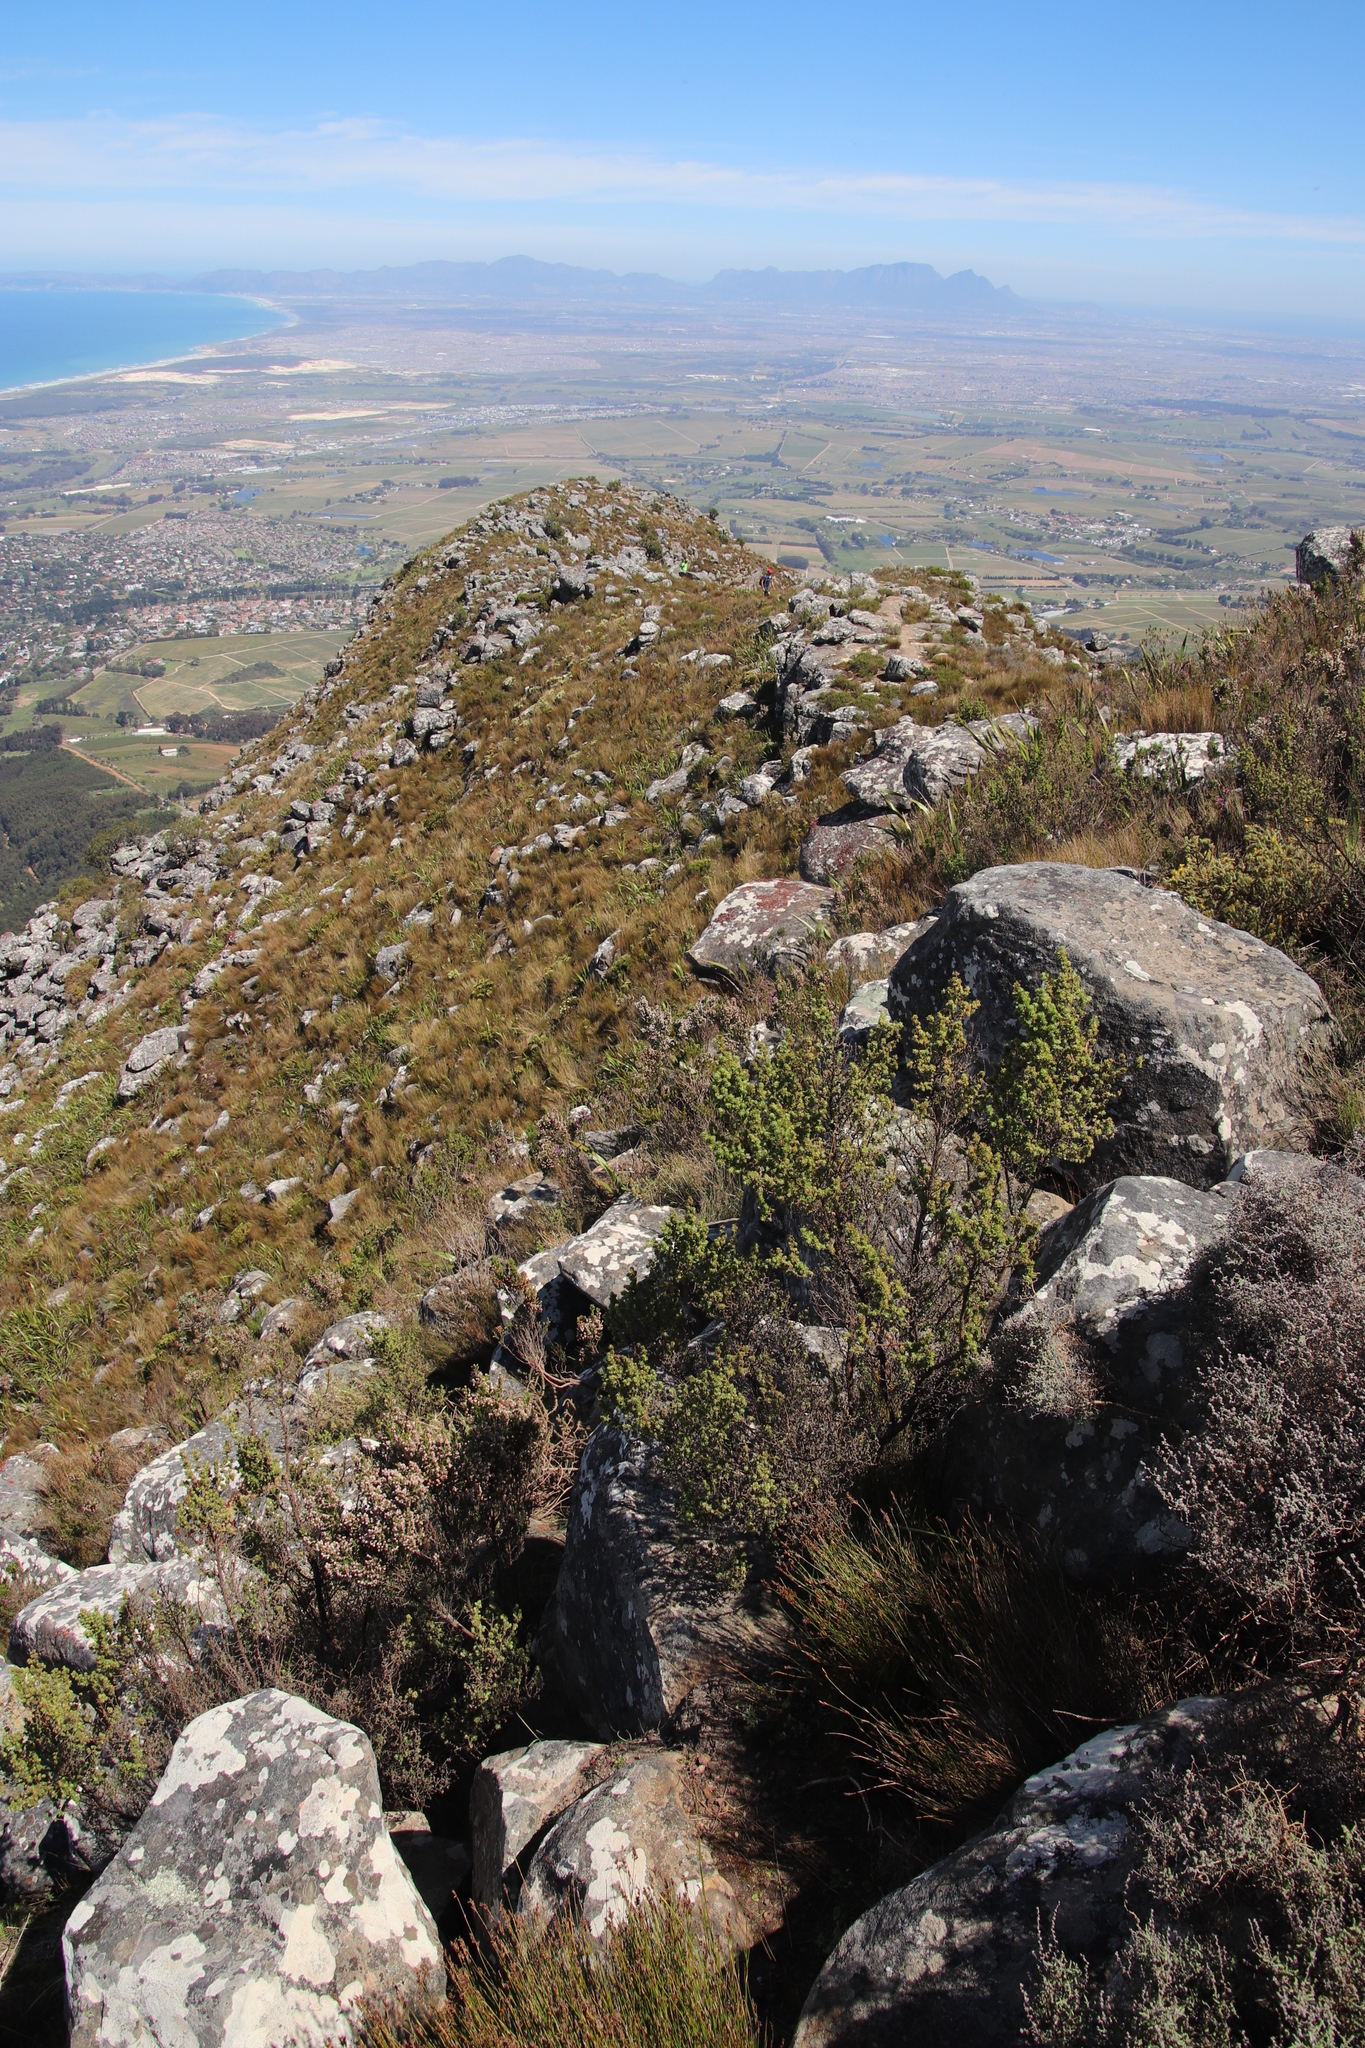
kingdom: Plantae
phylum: Tracheophyta
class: Magnoliopsida
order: Rosales
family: Rosaceae
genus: Cliffortia
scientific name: Cliffortia polygonifolia
